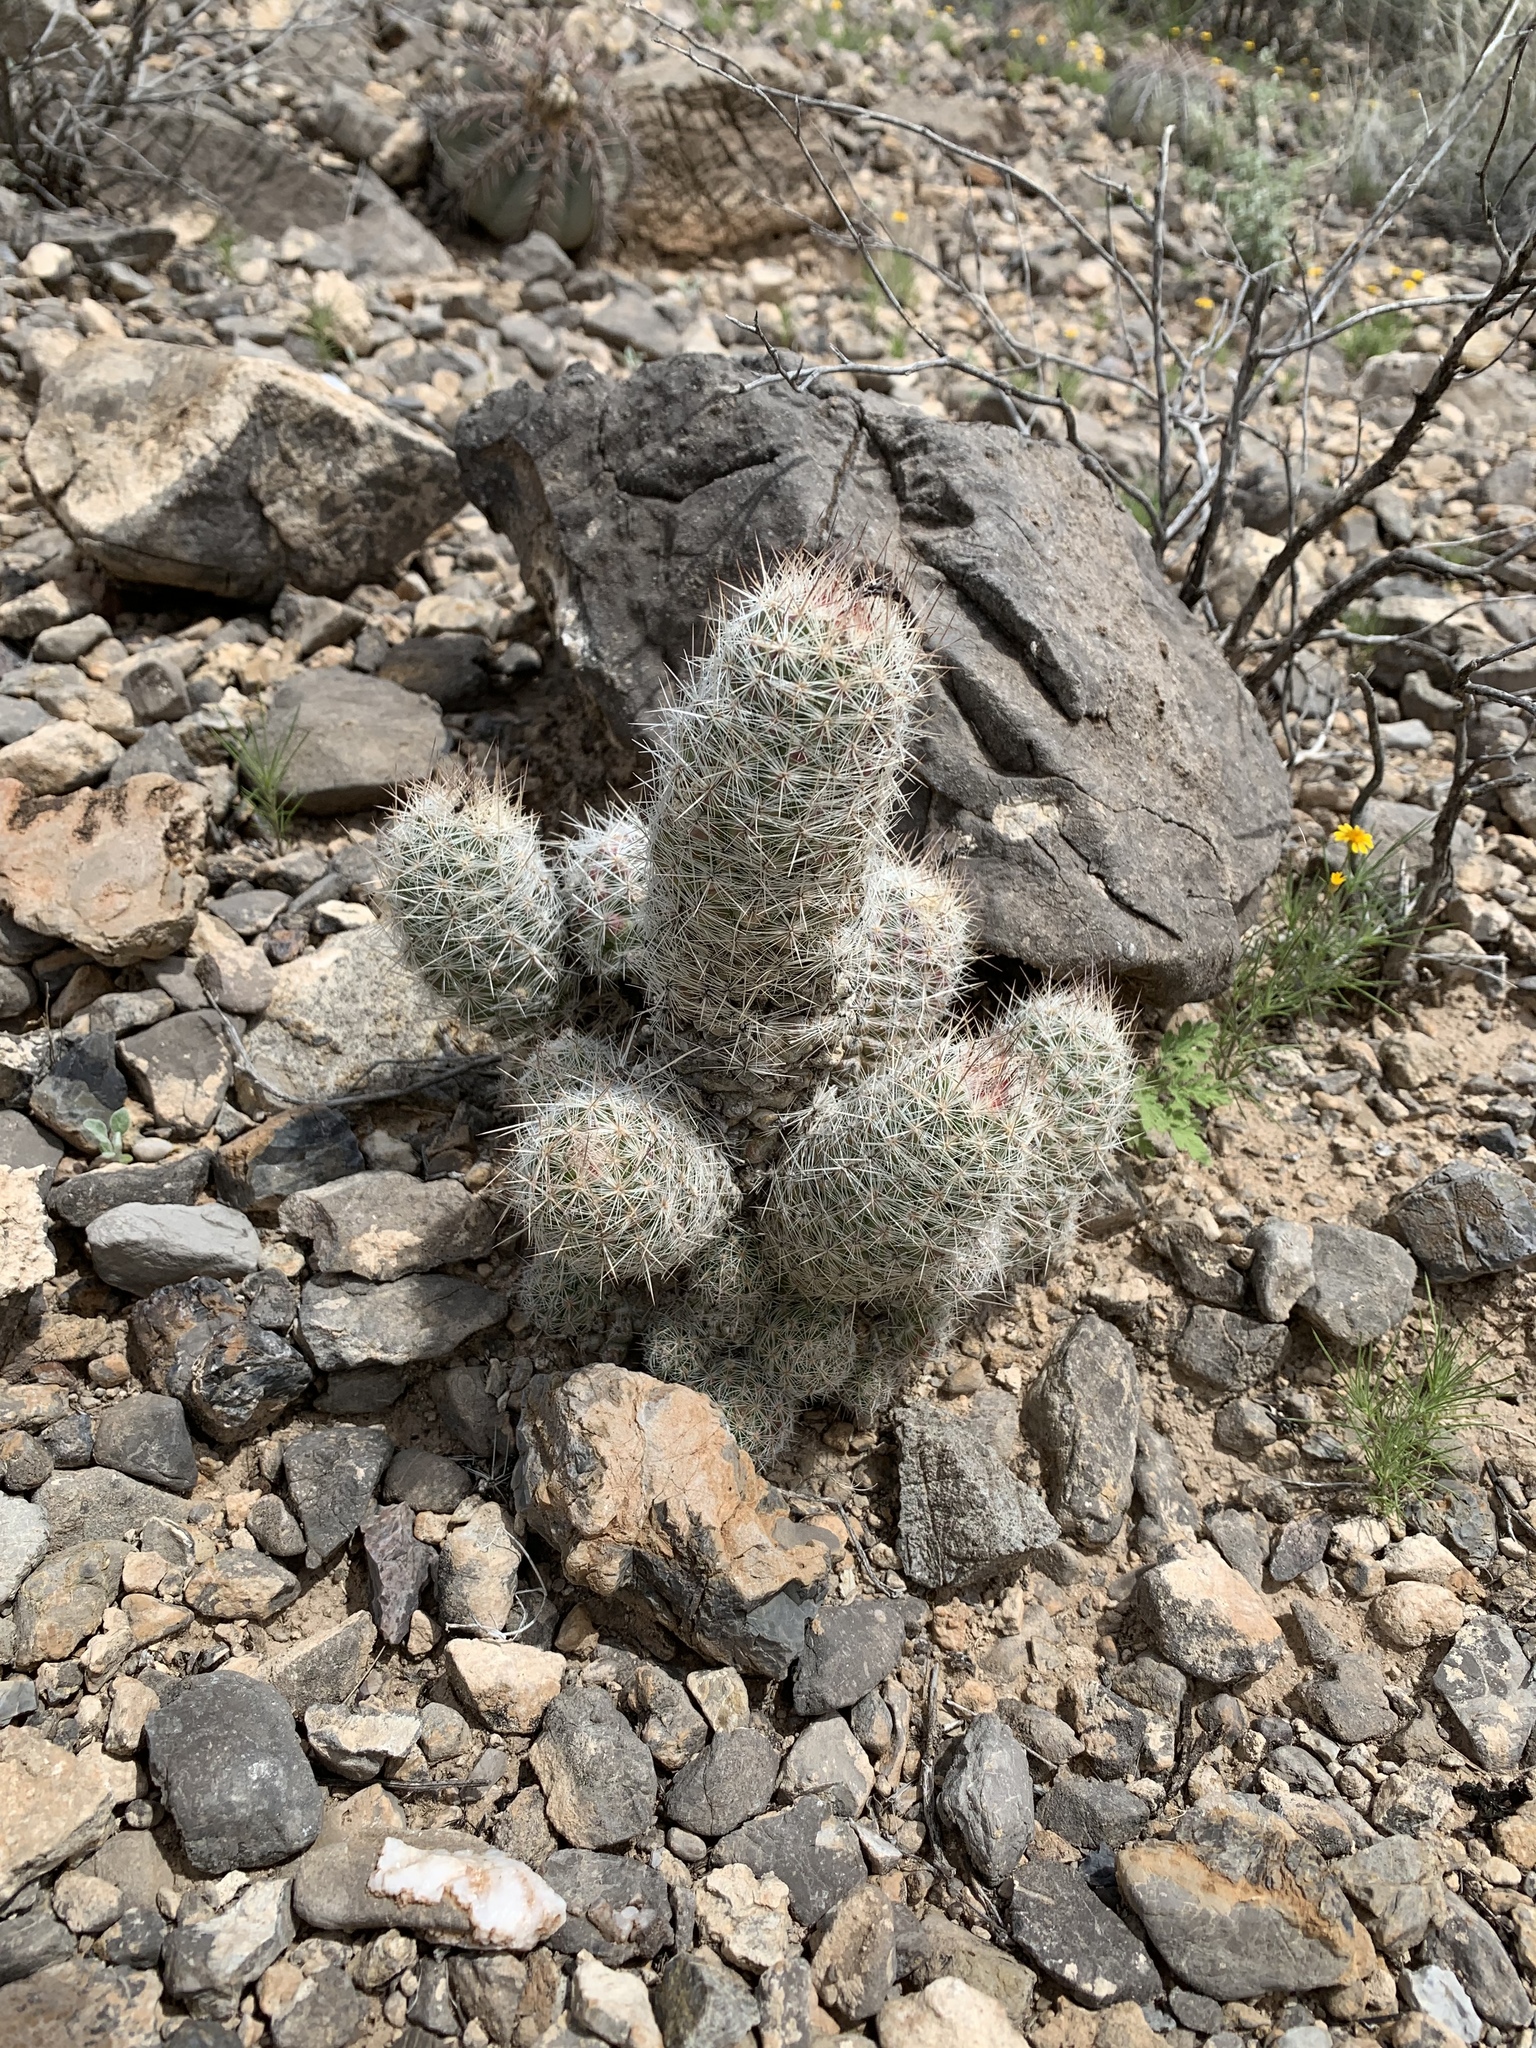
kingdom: Plantae
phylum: Tracheophyta
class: Magnoliopsida
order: Caryophyllales
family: Cactaceae
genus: Pelecyphora
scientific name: Pelecyphora tuberculosa
